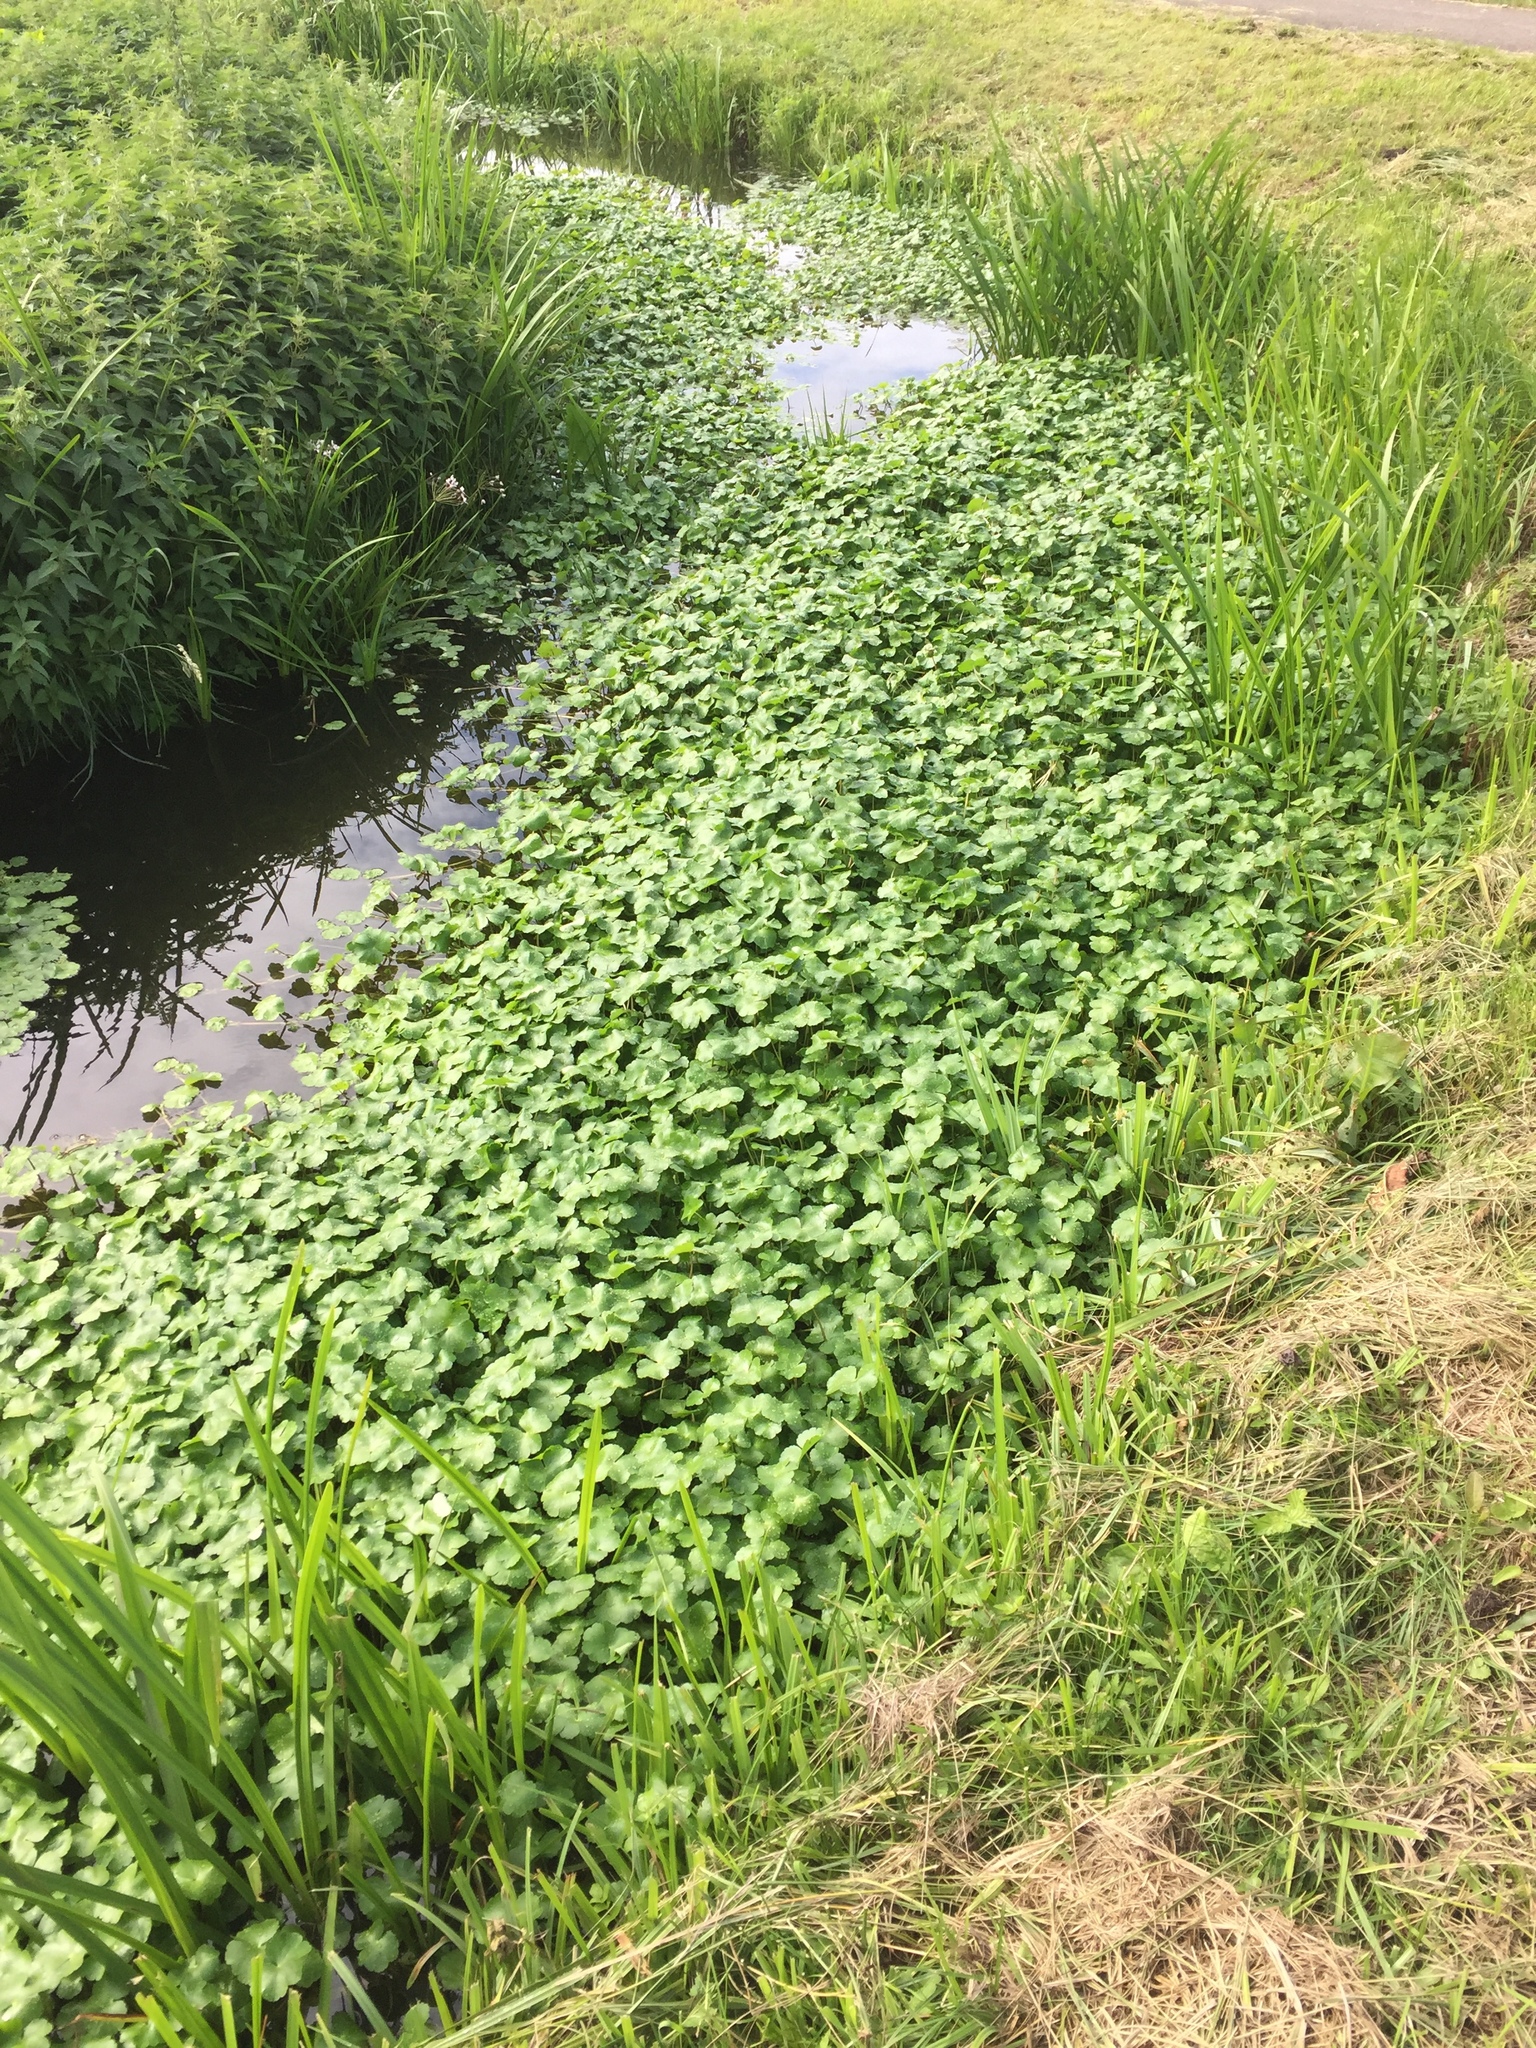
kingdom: Plantae
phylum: Tracheophyta
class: Magnoliopsida
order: Apiales
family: Araliaceae
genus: Hydrocotyle
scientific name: Hydrocotyle ranunculoides
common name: Floating pennywort
